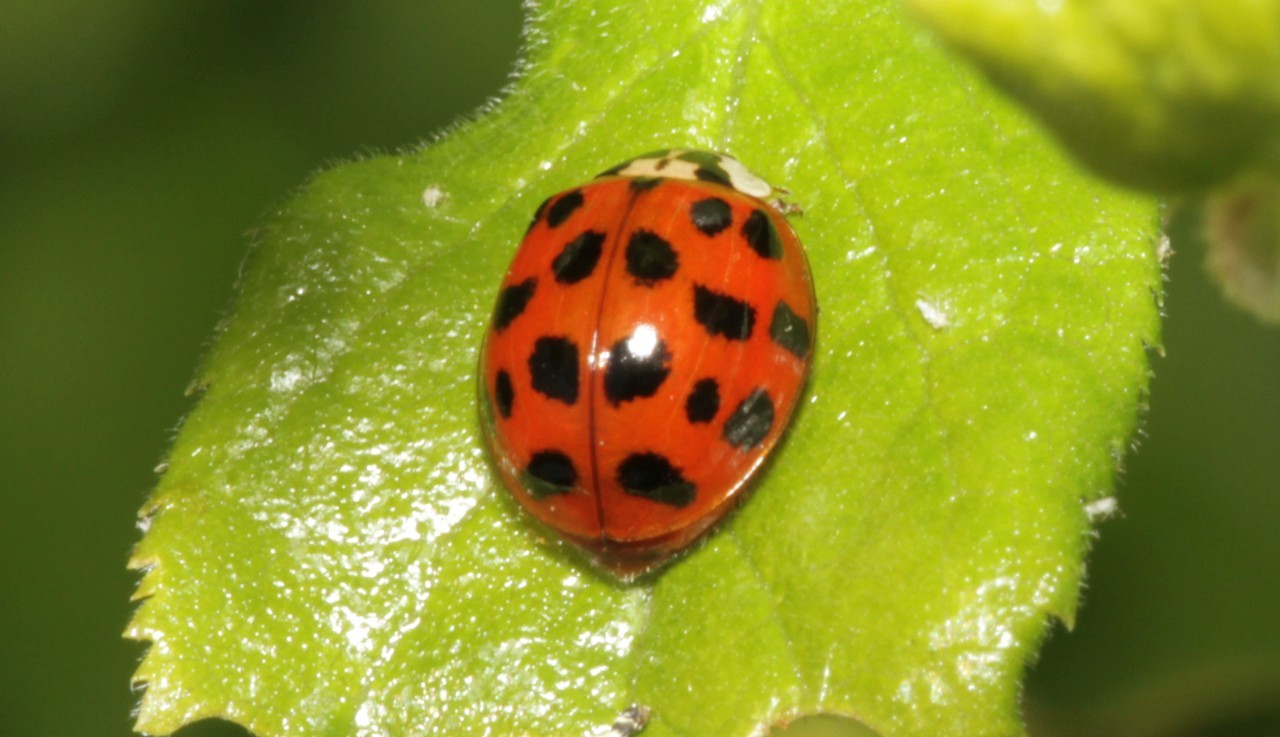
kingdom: Animalia
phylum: Arthropoda
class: Insecta
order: Coleoptera
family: Coccinellidae
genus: Harmonia
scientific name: Harmonia axyridis
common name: Harlequin ladybird
